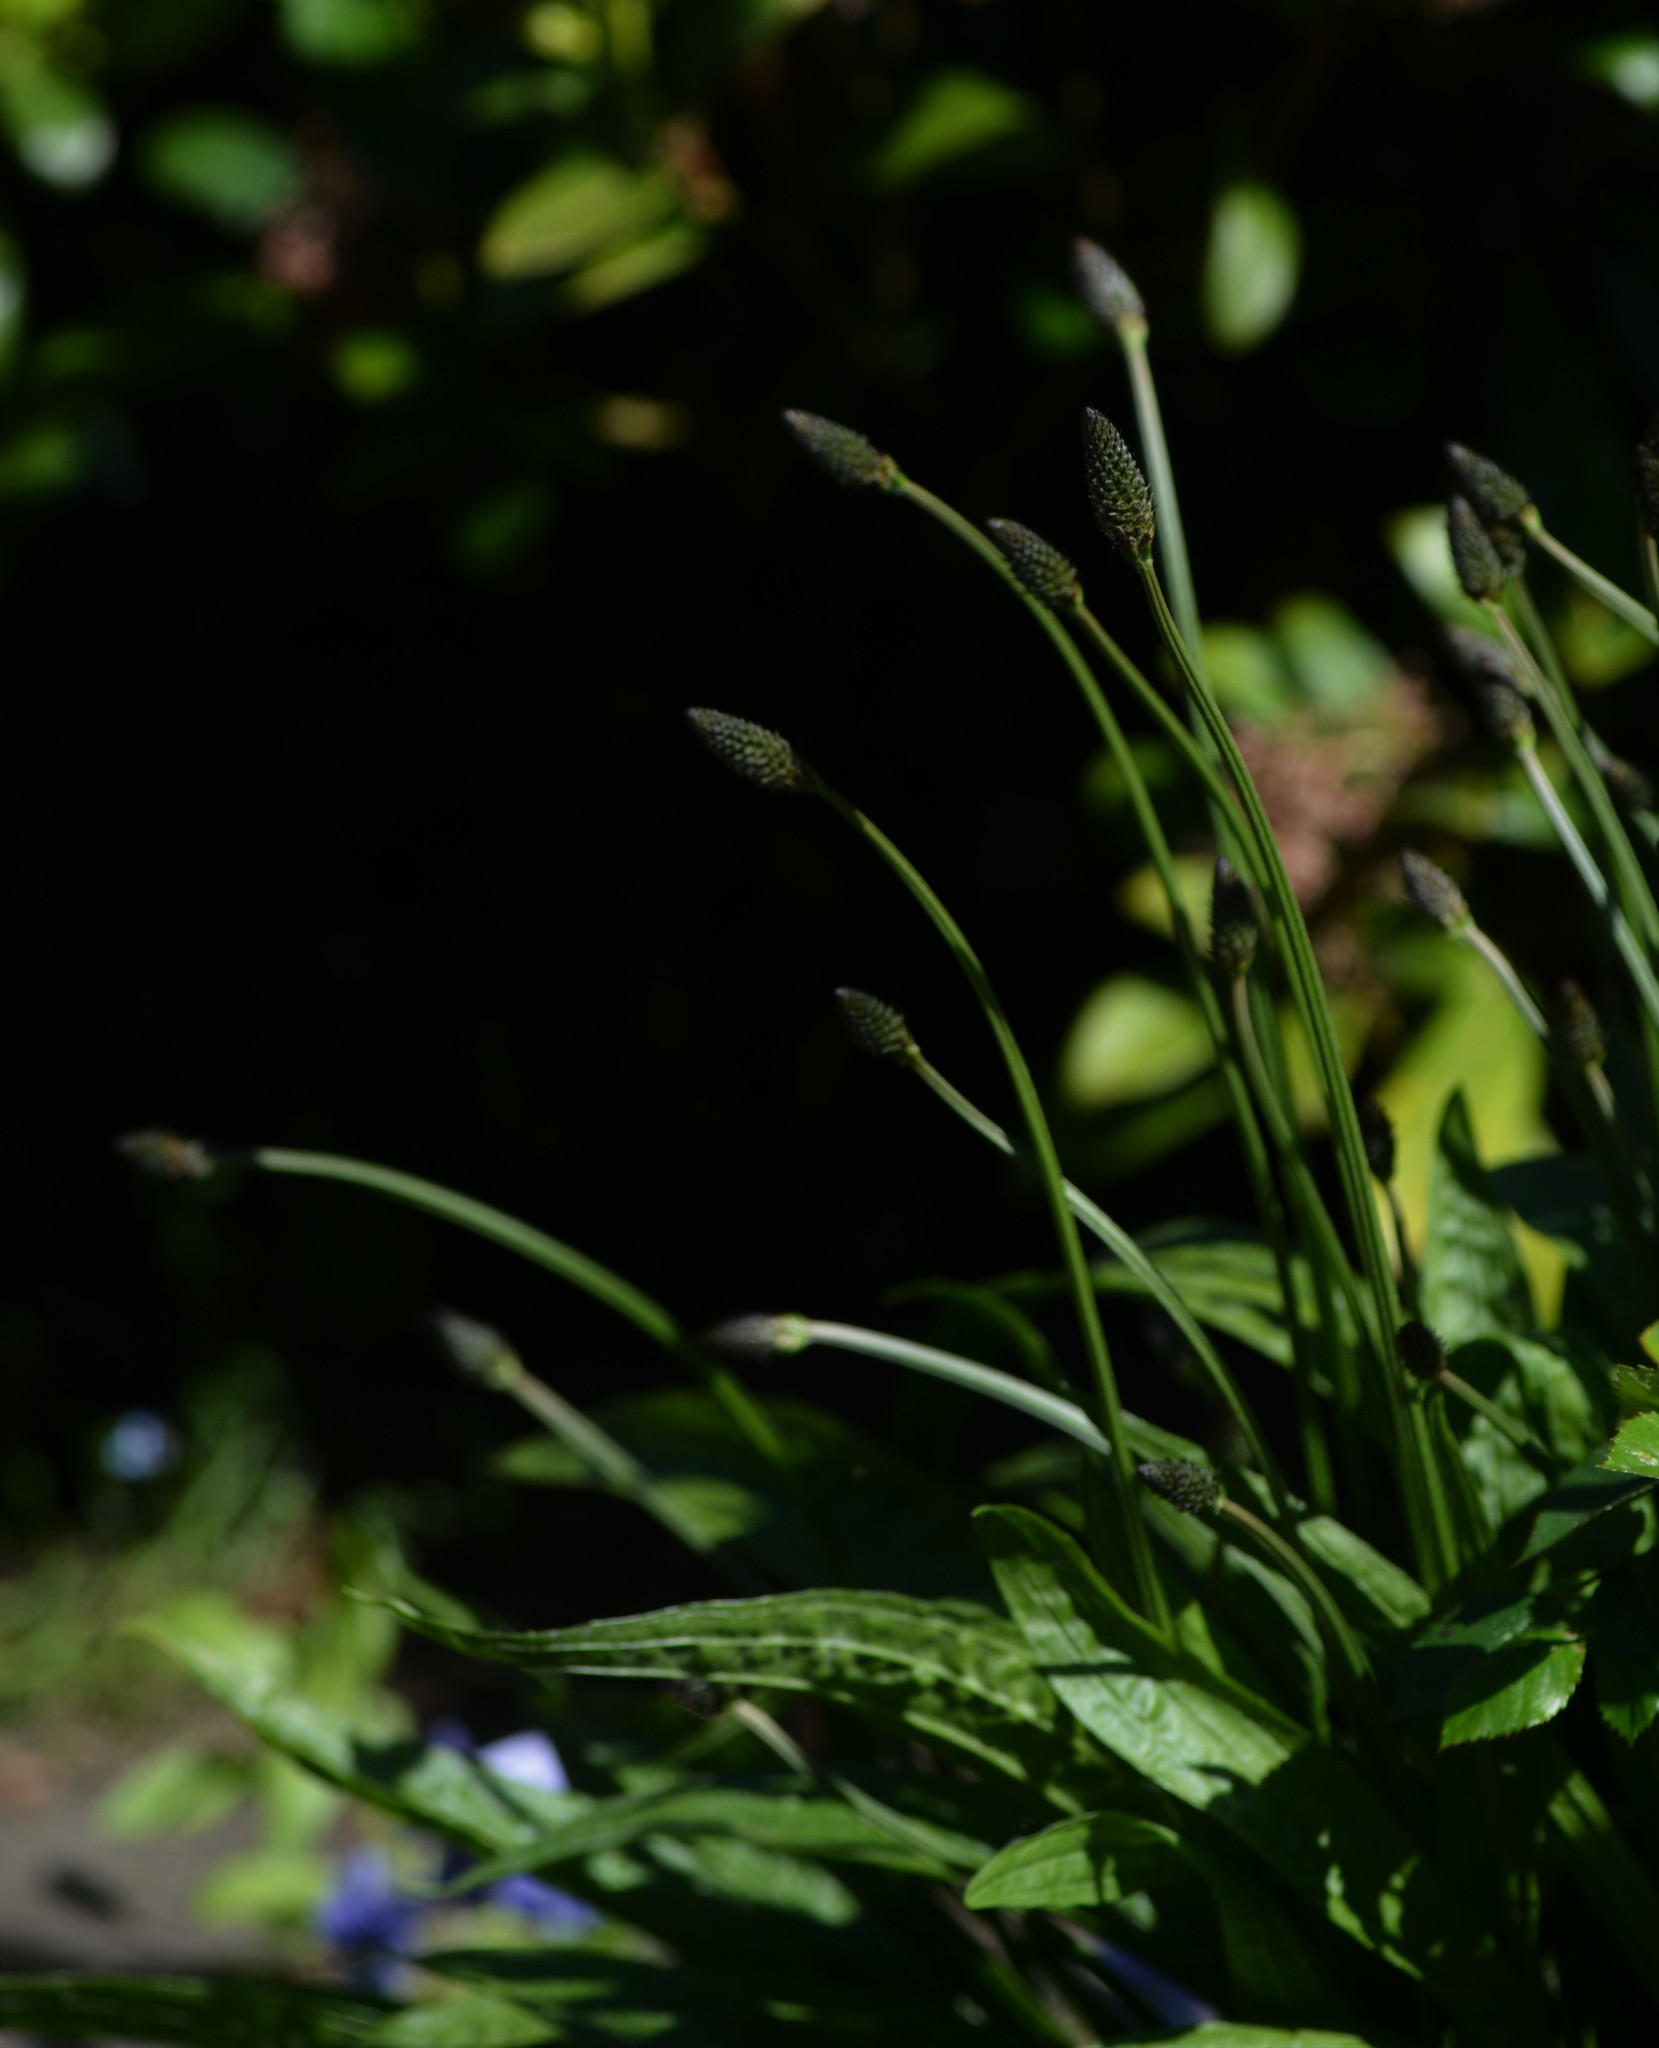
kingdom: Plantae
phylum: Tracheophyta
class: Magnoliopsida
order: Lamiales
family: Plantaginaceae
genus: Plantago
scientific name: Plantago lanceolata
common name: Ribwort plantain
